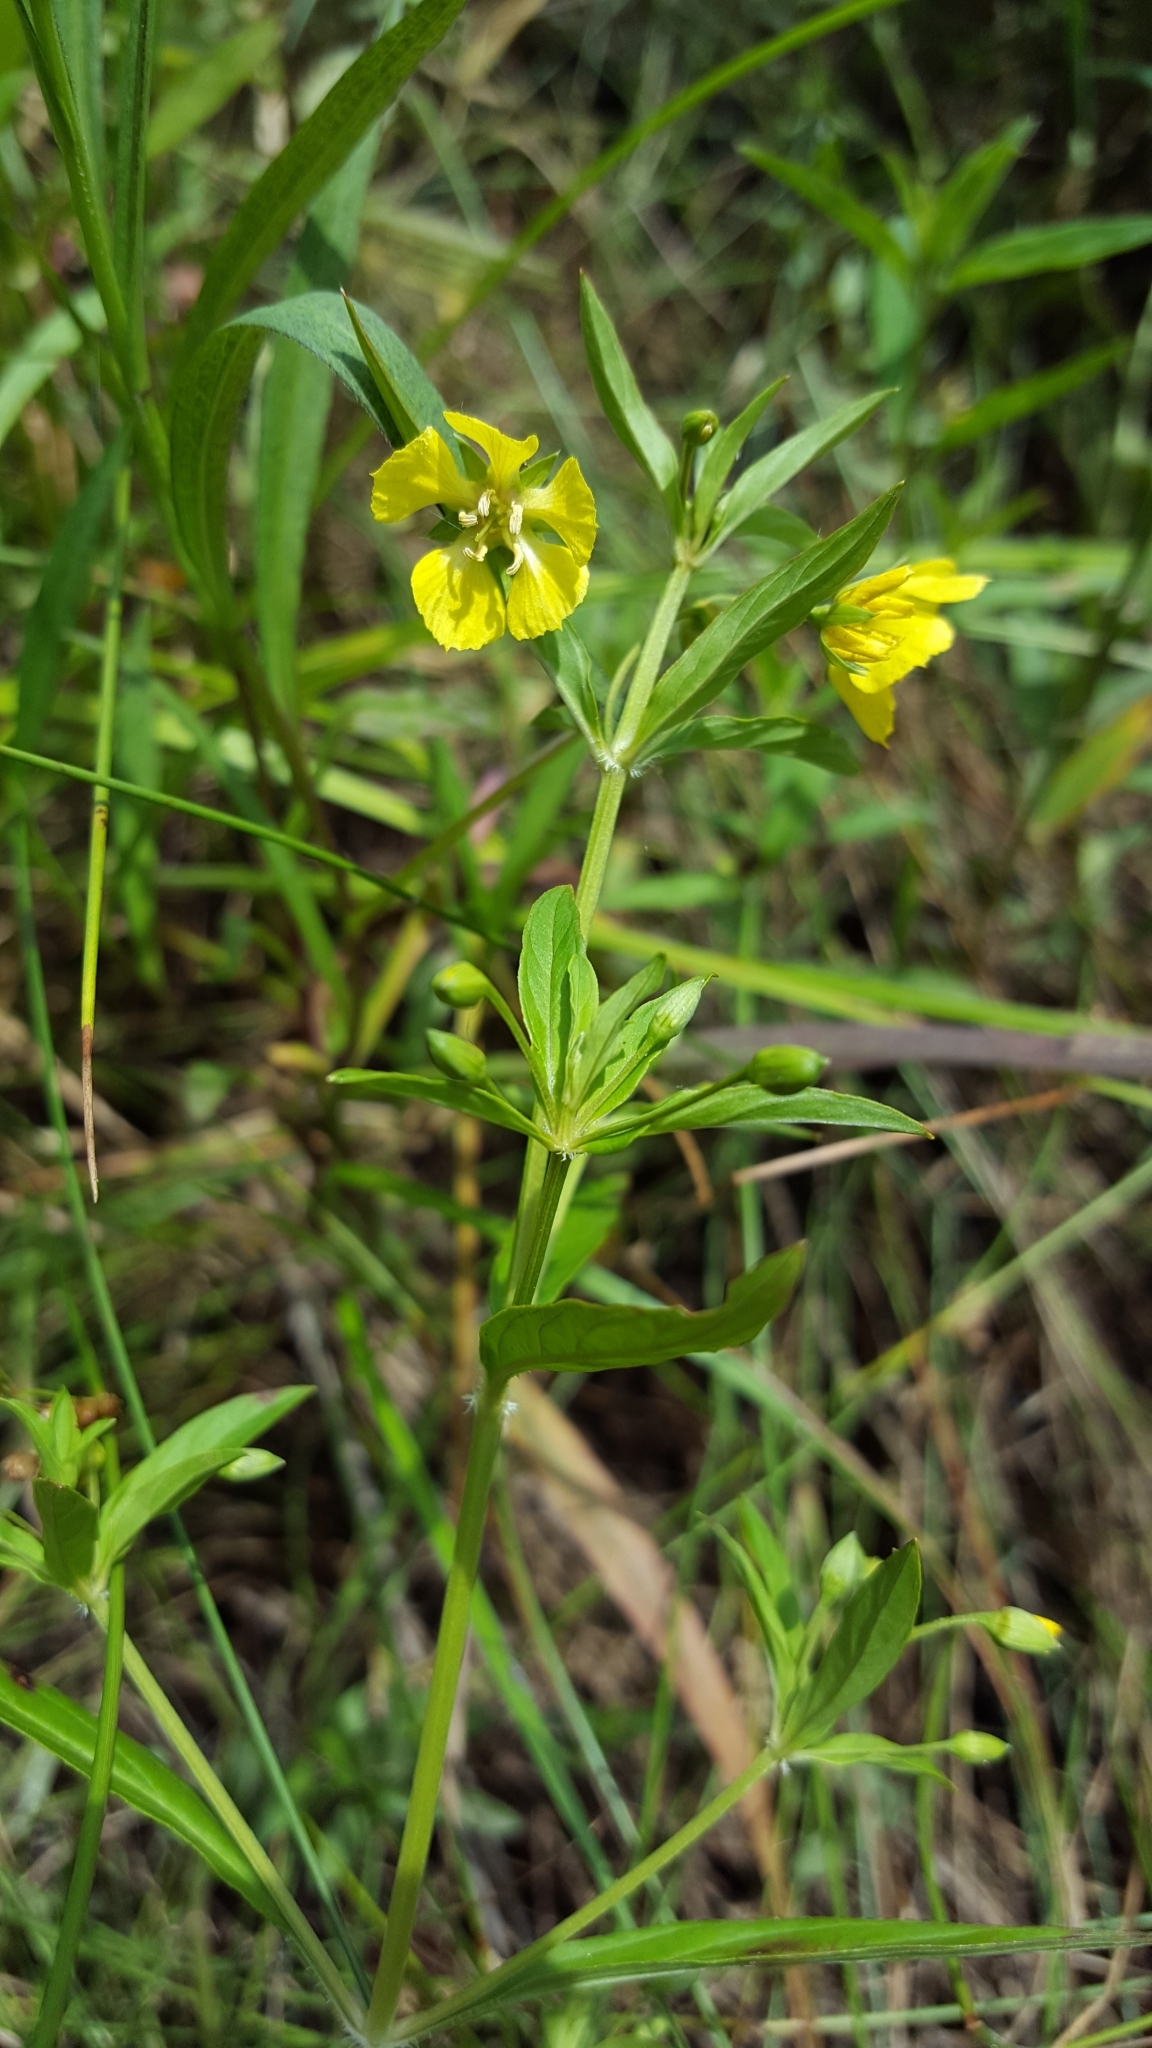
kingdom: Plantae
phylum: Tracheophyta
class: Magnoliopsida
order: Ericales
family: Primulaceae
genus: Lysimachia
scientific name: Lysimachia ciliata
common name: Fringed loosestrife
